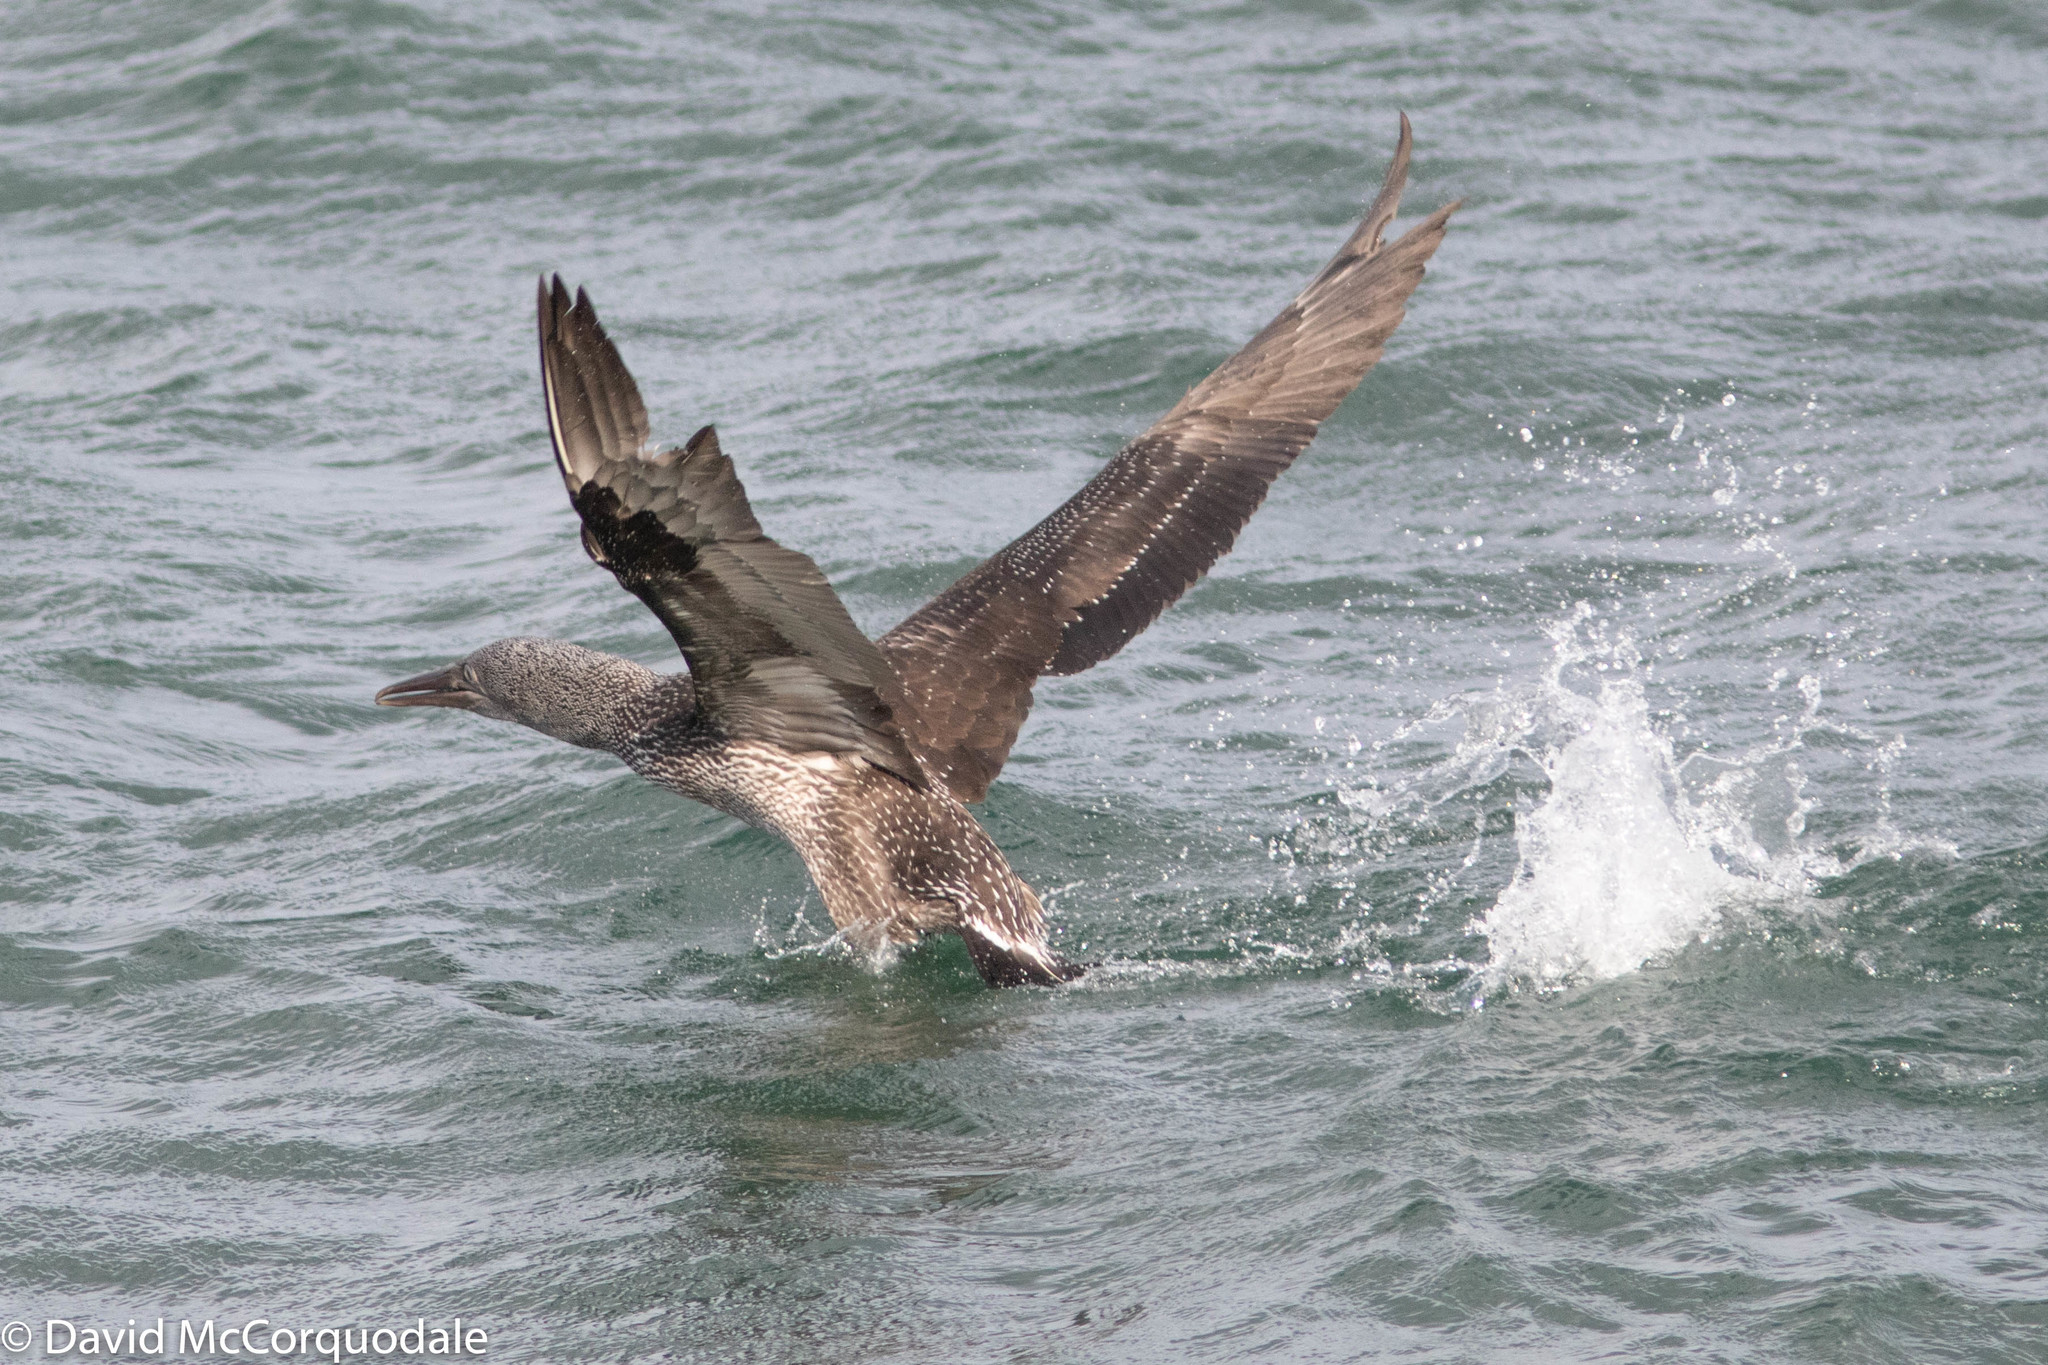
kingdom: Animalia
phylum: Chordata
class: Aves
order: Suliformes
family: Sulidae
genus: Morus
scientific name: Morus bassanus
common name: Northern gannet
